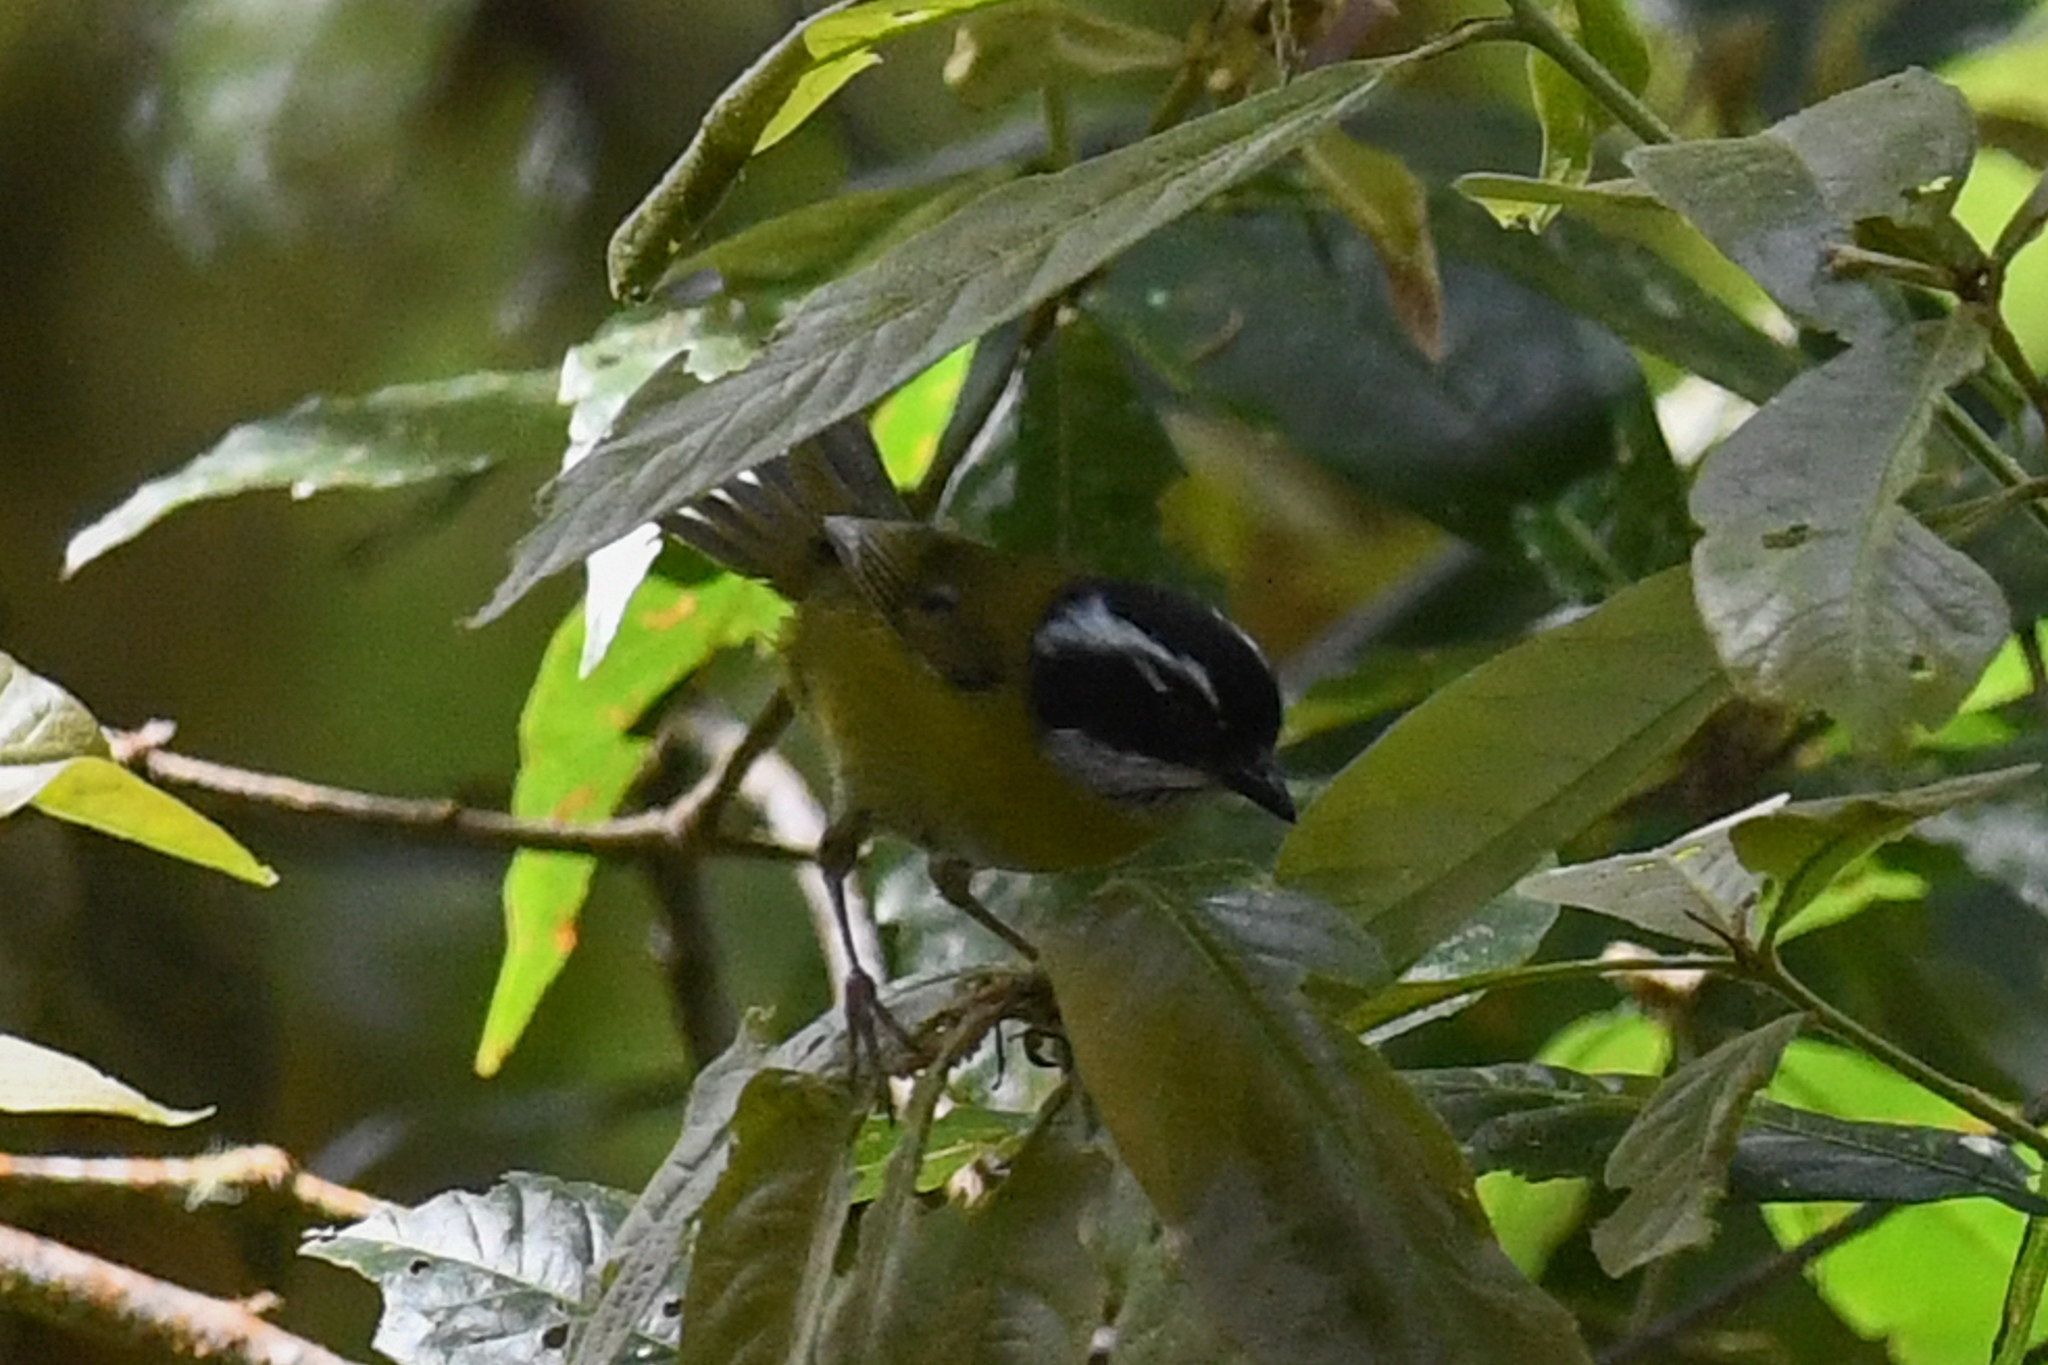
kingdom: Animalia
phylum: Chordata
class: Aves
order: Passeriformes
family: Passerellidae
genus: Chlorospingus
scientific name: Chlorospingus pileatus
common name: Sooty-capped bush-tanager
